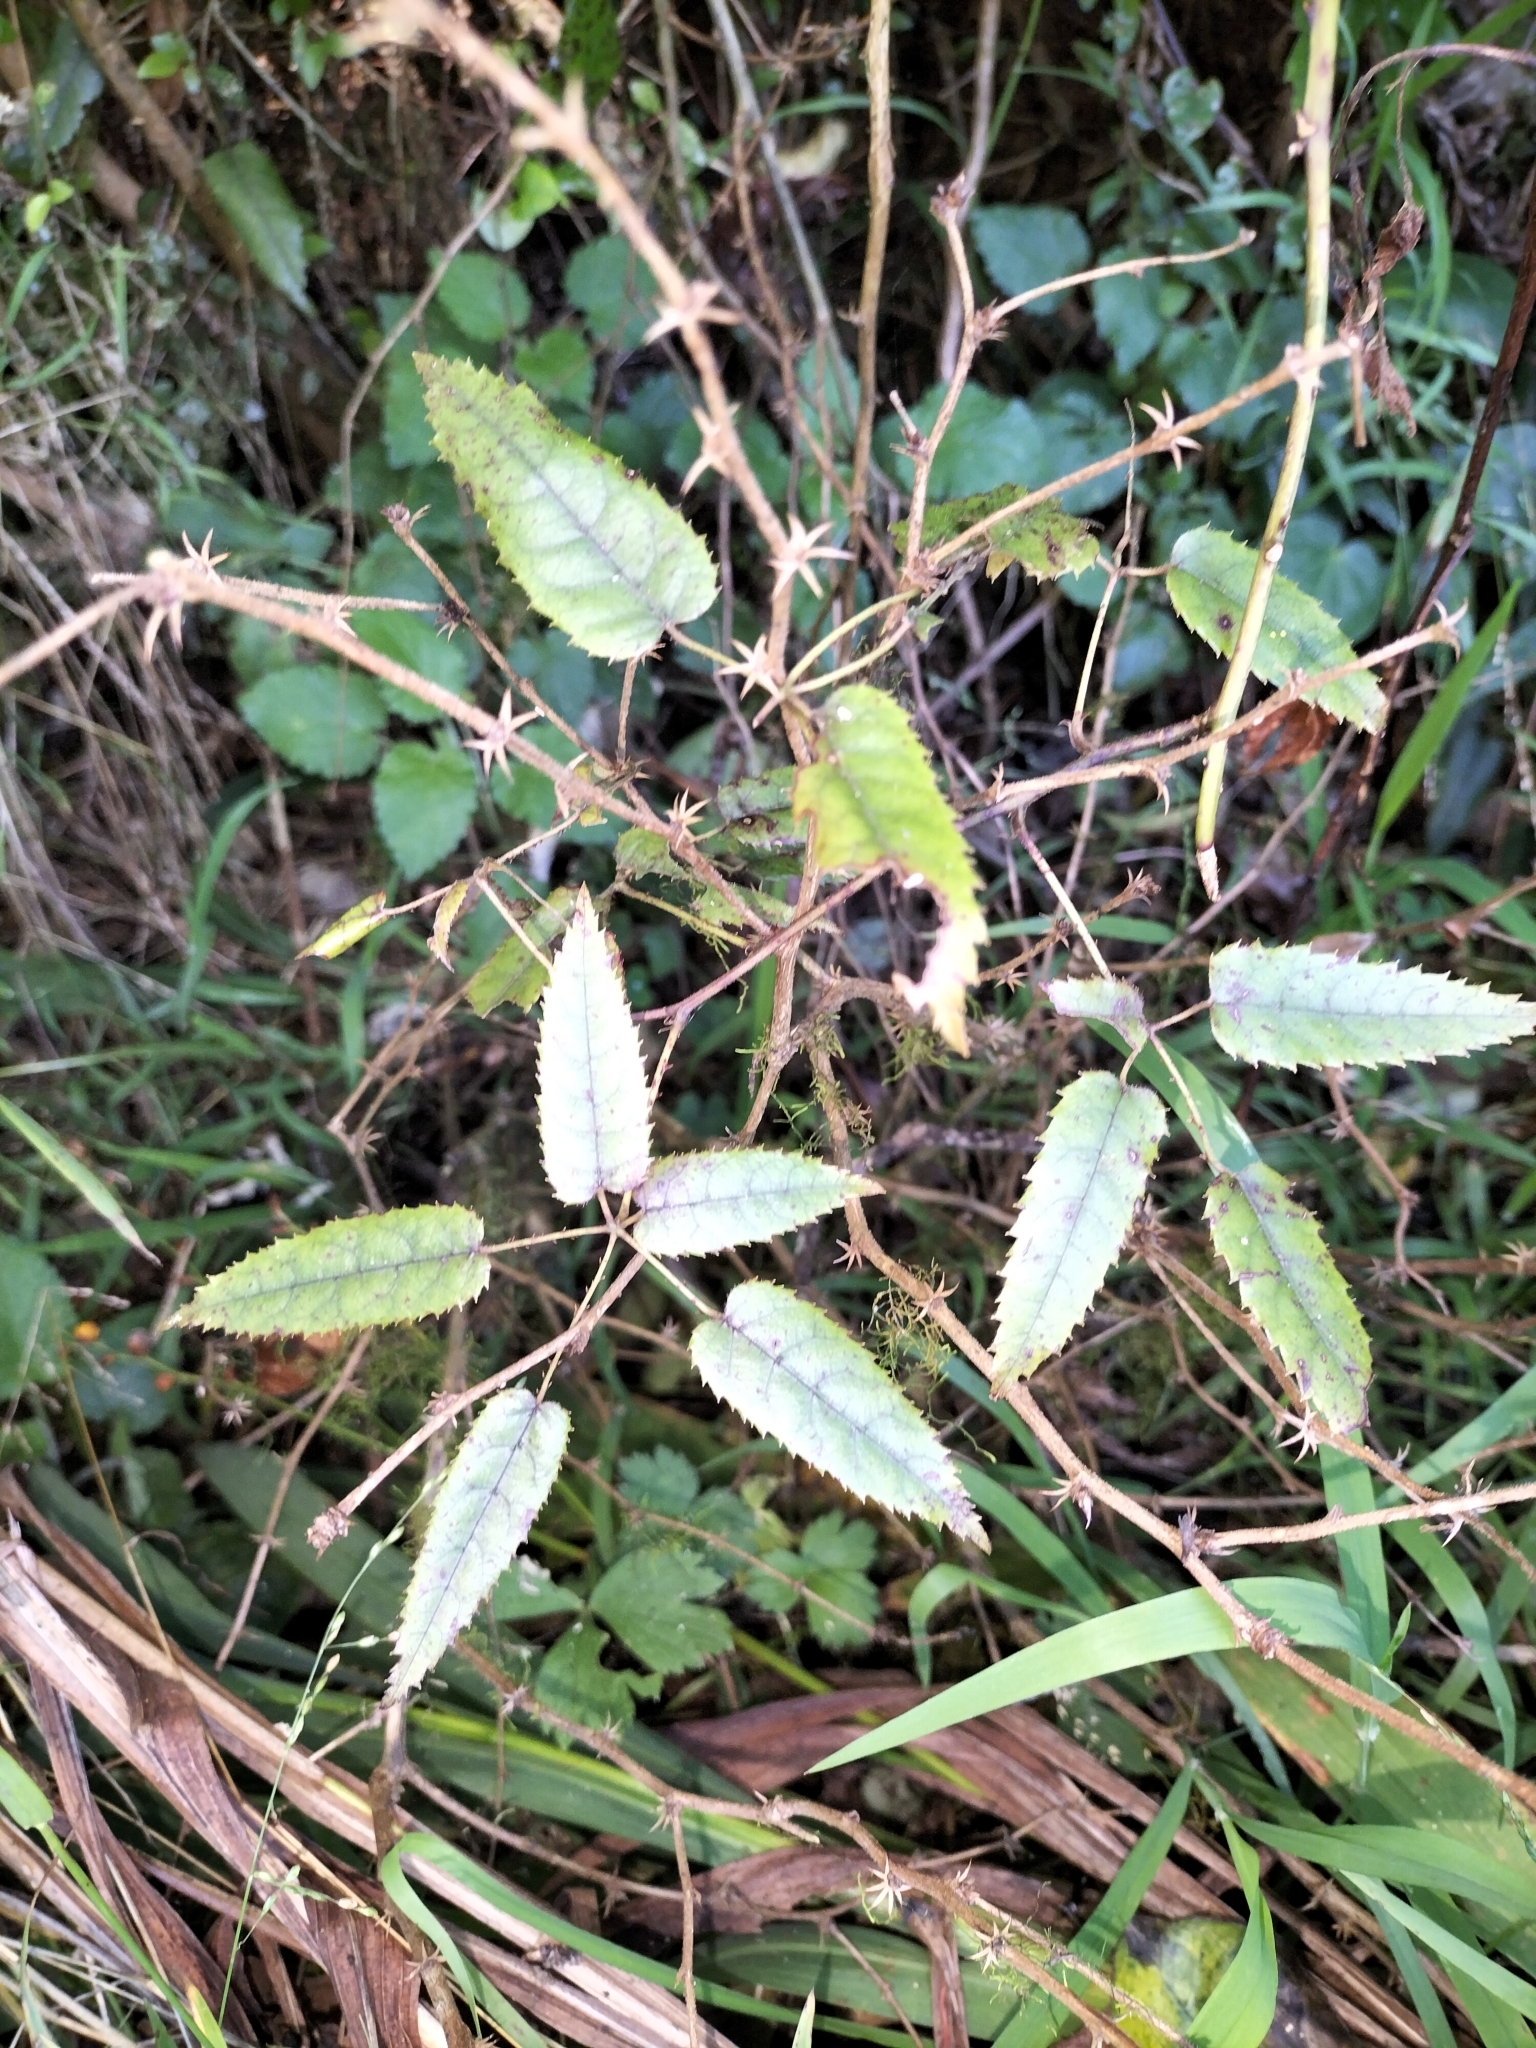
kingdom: Plantae
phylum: Tracheophyta
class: Magnoliopsida
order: Rosales
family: Rosaceae
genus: Rubus
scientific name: Rubus cissoides
